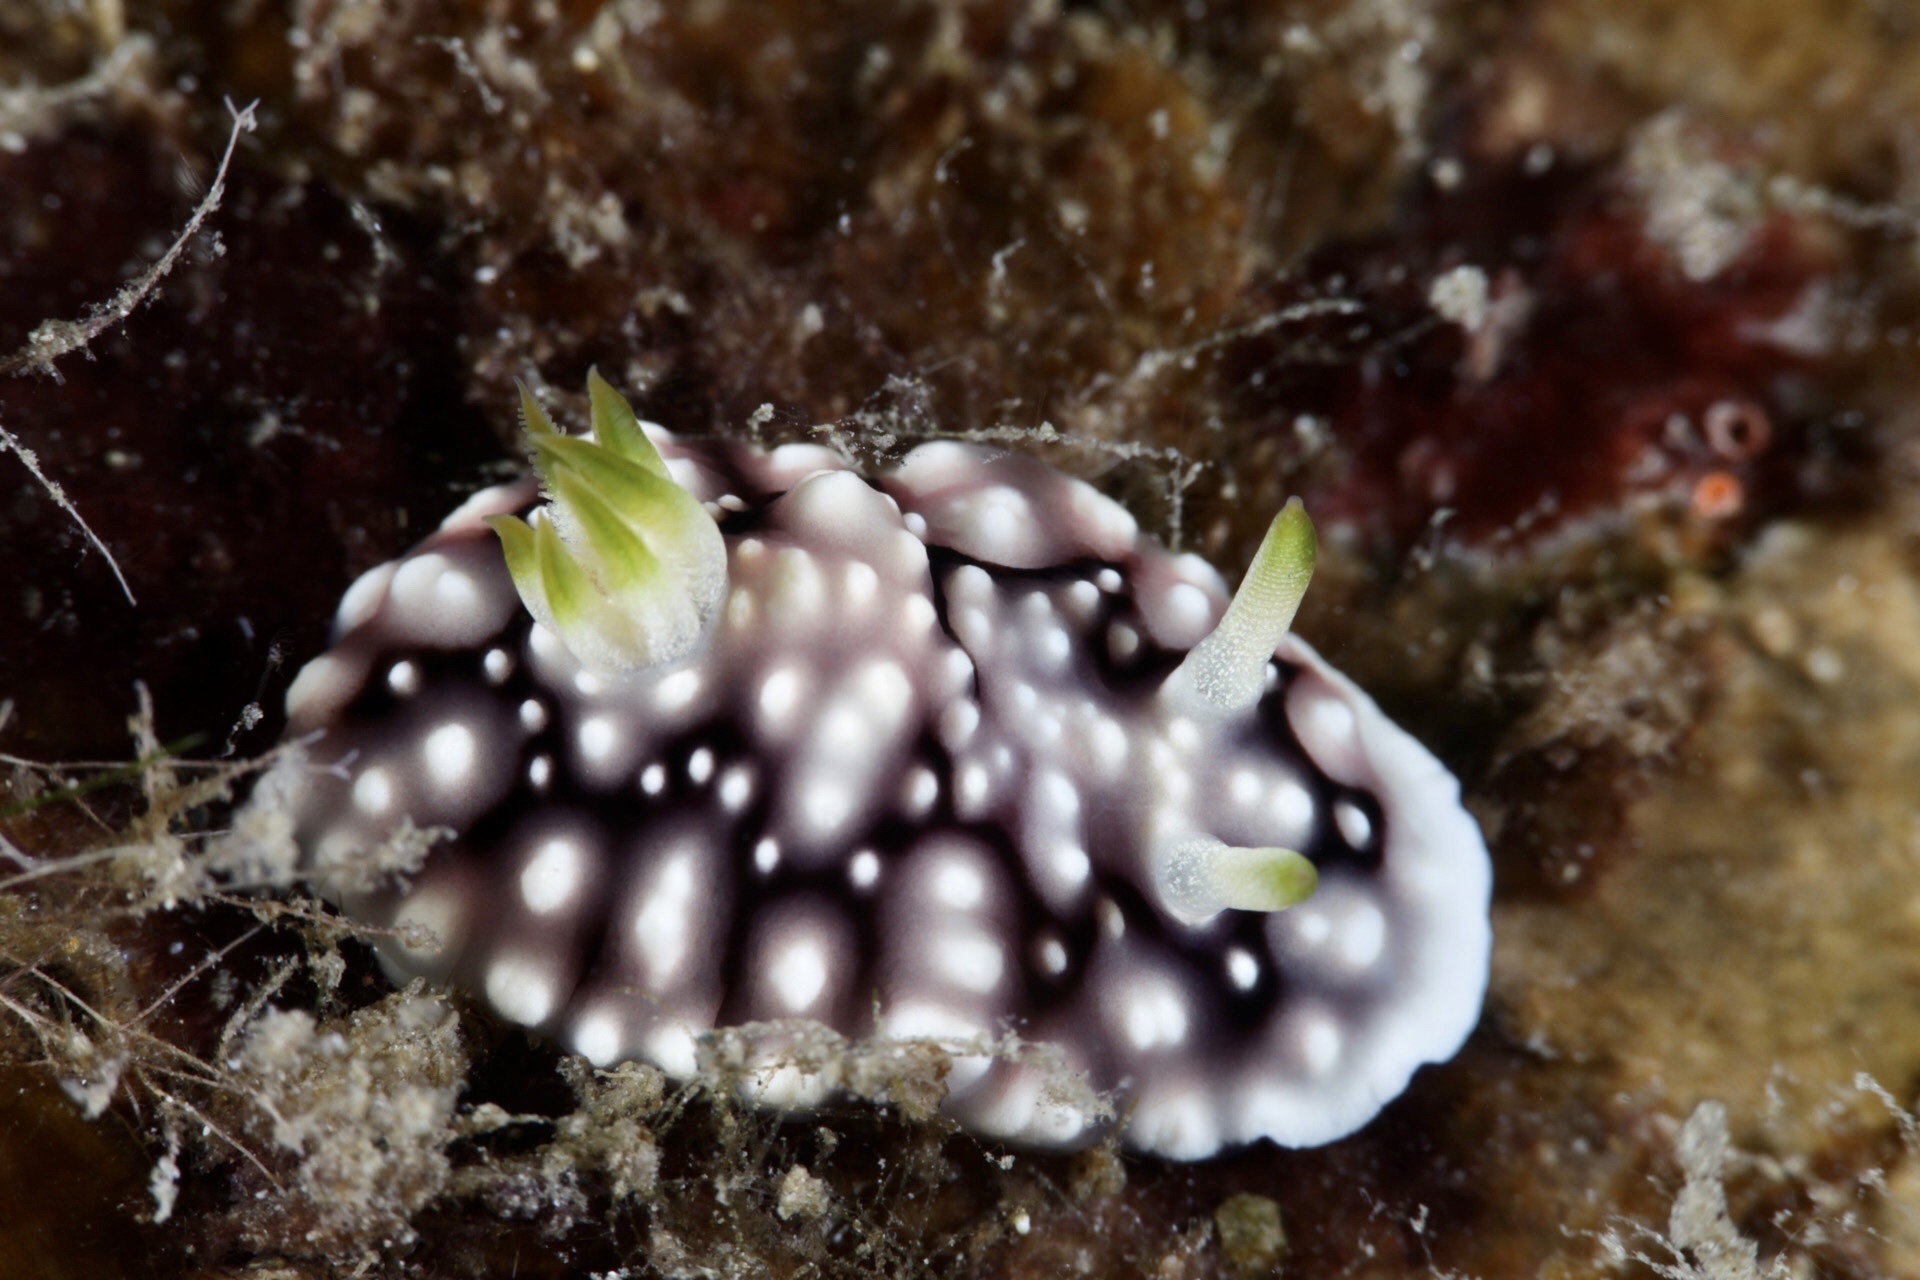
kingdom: Animalia
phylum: Mollusca
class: Gastropoda
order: Nudibranchia
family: Chromodorididae
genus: Goniobranchus
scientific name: Goniobranchus geometricus
